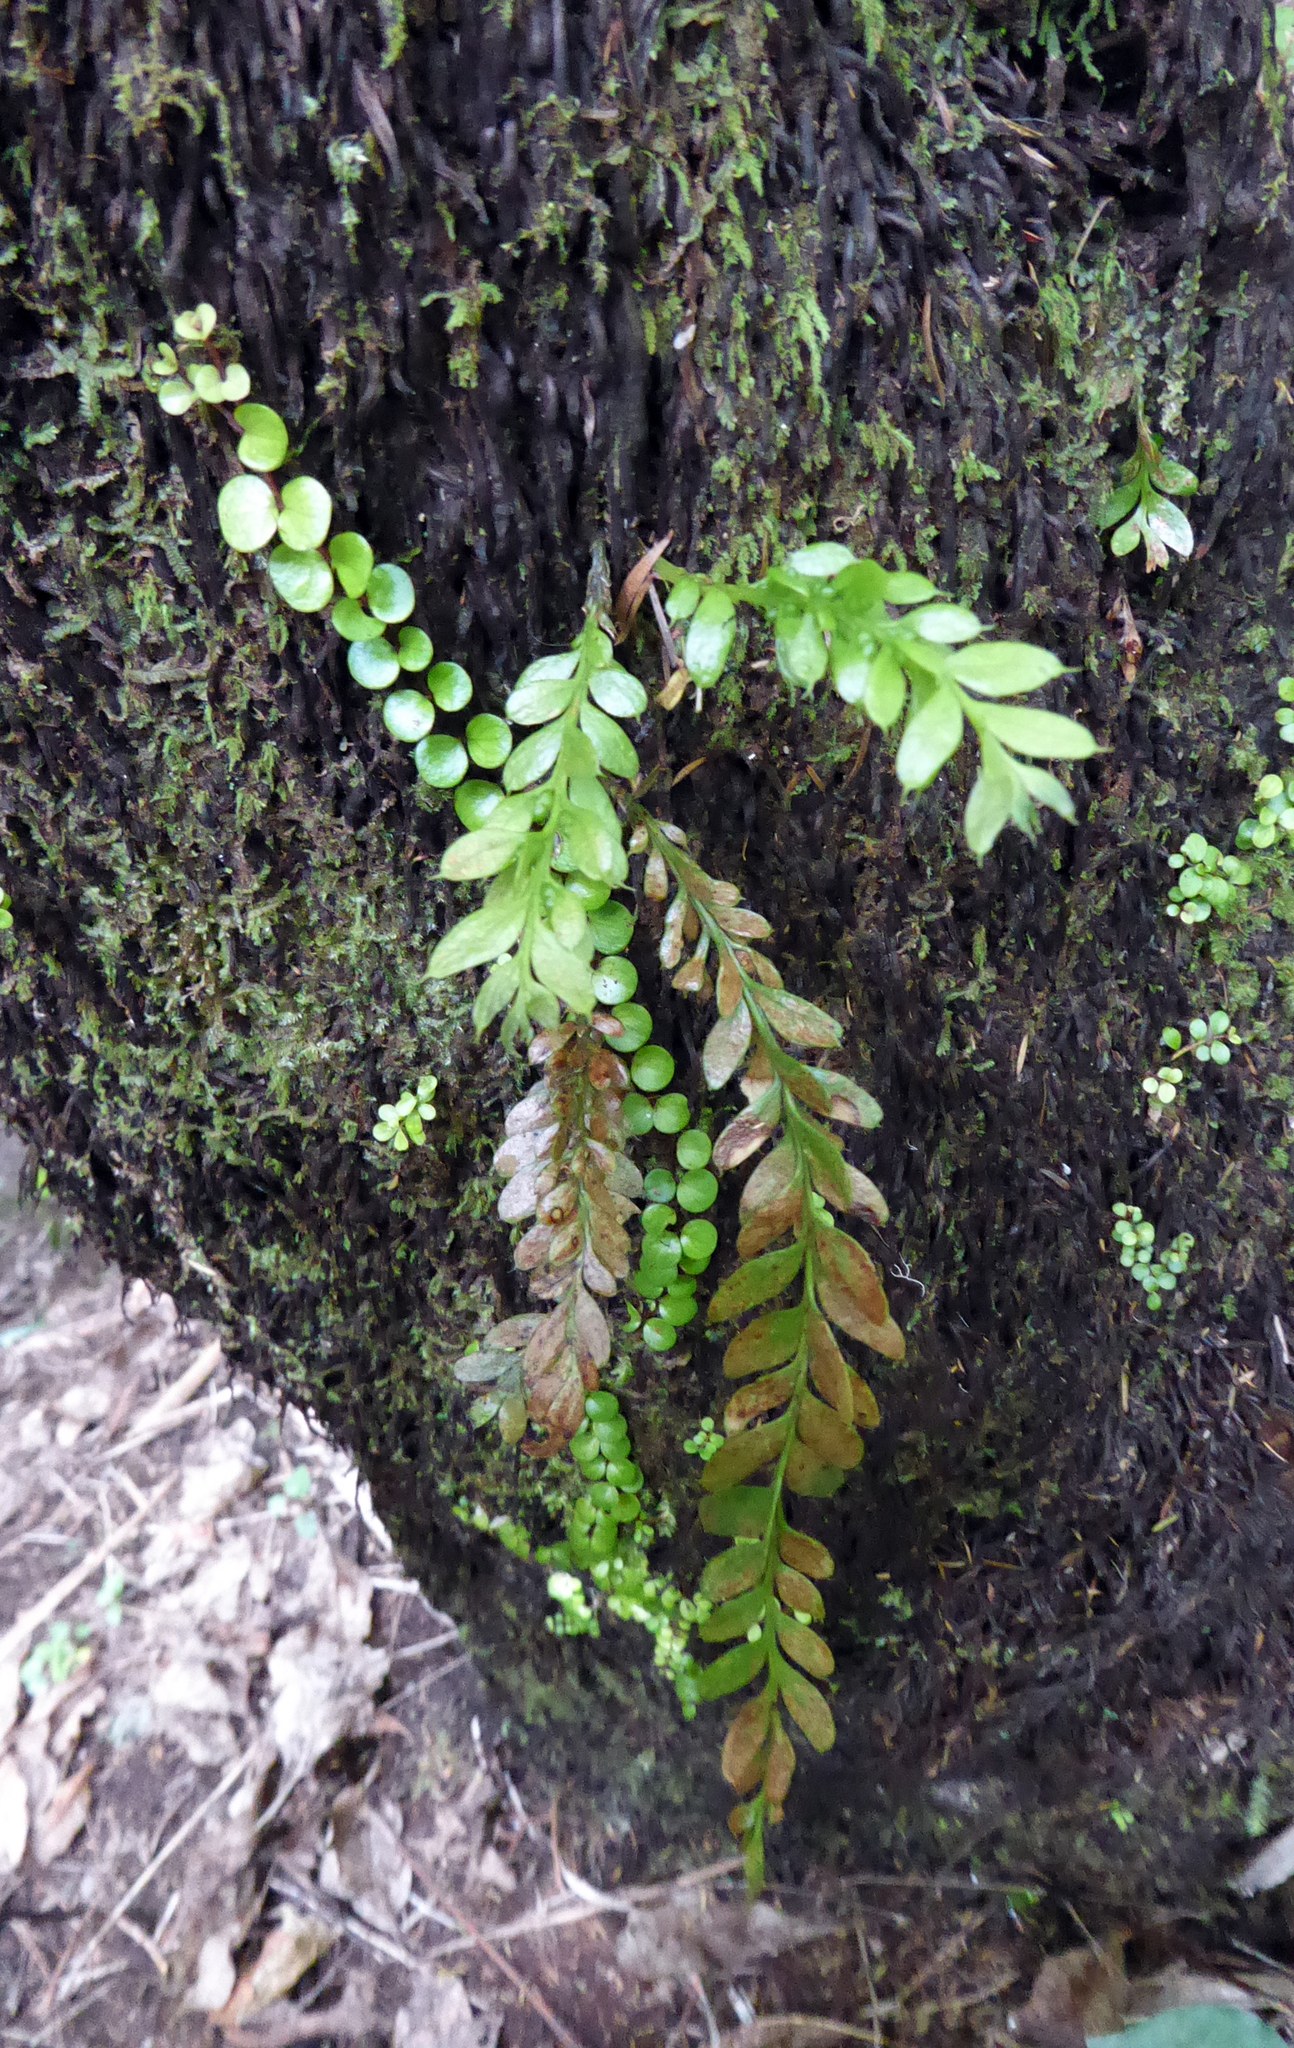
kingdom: Plantae
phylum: Tracheophyta
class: Polypodiopsida
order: Psilotales
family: Psilotaceae
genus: Tmesipteris
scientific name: Tmesipteris lanceolata
